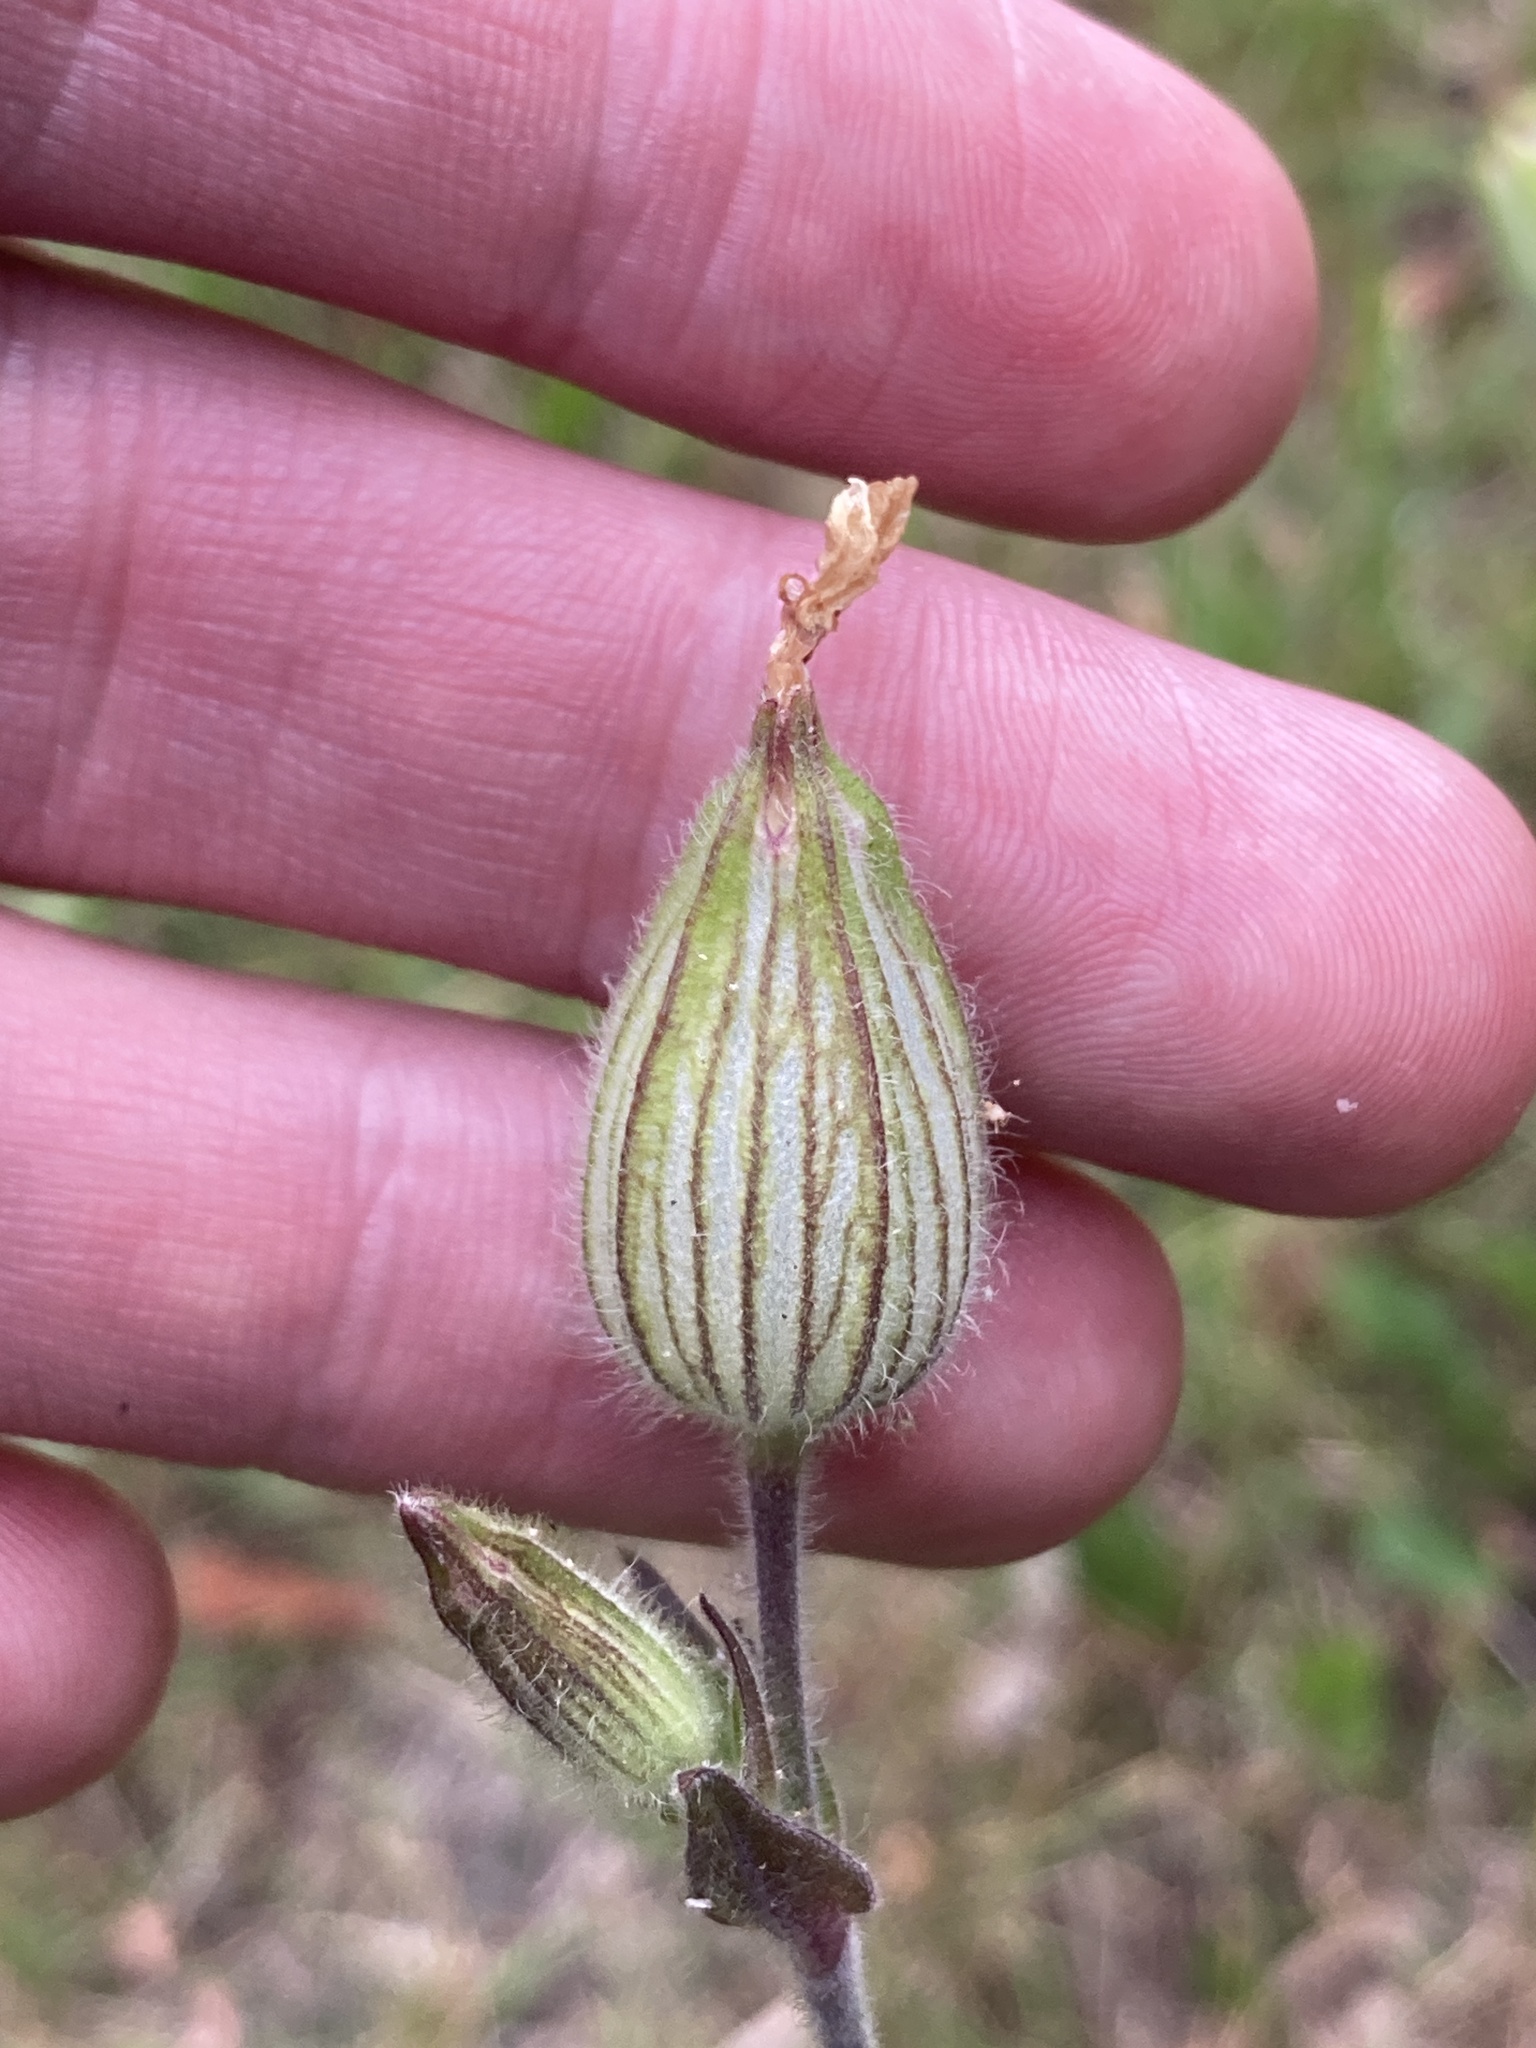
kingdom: Plantae
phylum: Tracheophyta
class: Magnoliopsida
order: Caryophyllales
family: Caryophyllaceae
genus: Silene
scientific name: Silene latifolia
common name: White campion
